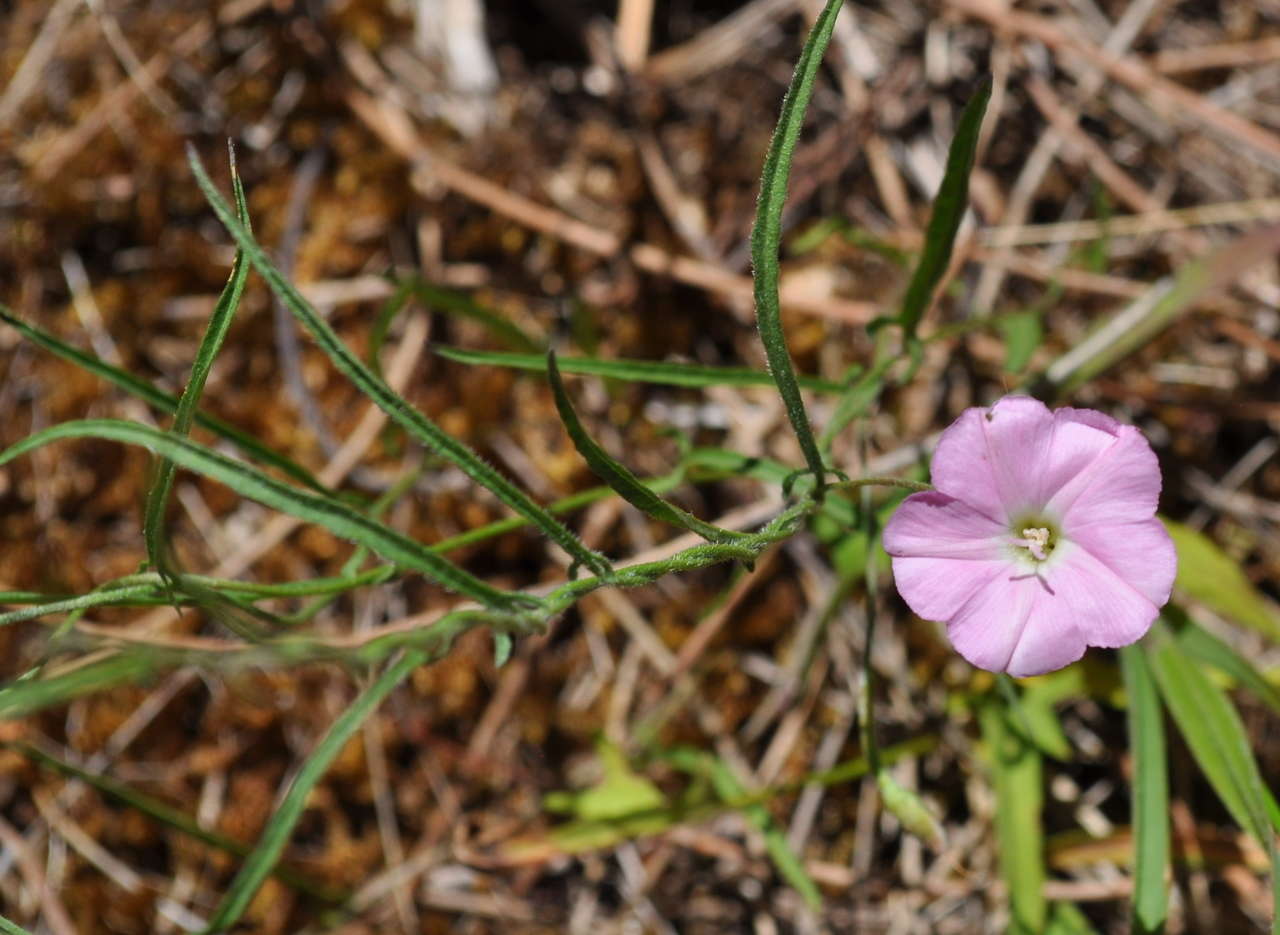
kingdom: Plantae
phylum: Tracheophyta
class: Magnoliopsida
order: Solanales
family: Convolvulaceae
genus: Convolvulus
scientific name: Convolvulus angustissimus
